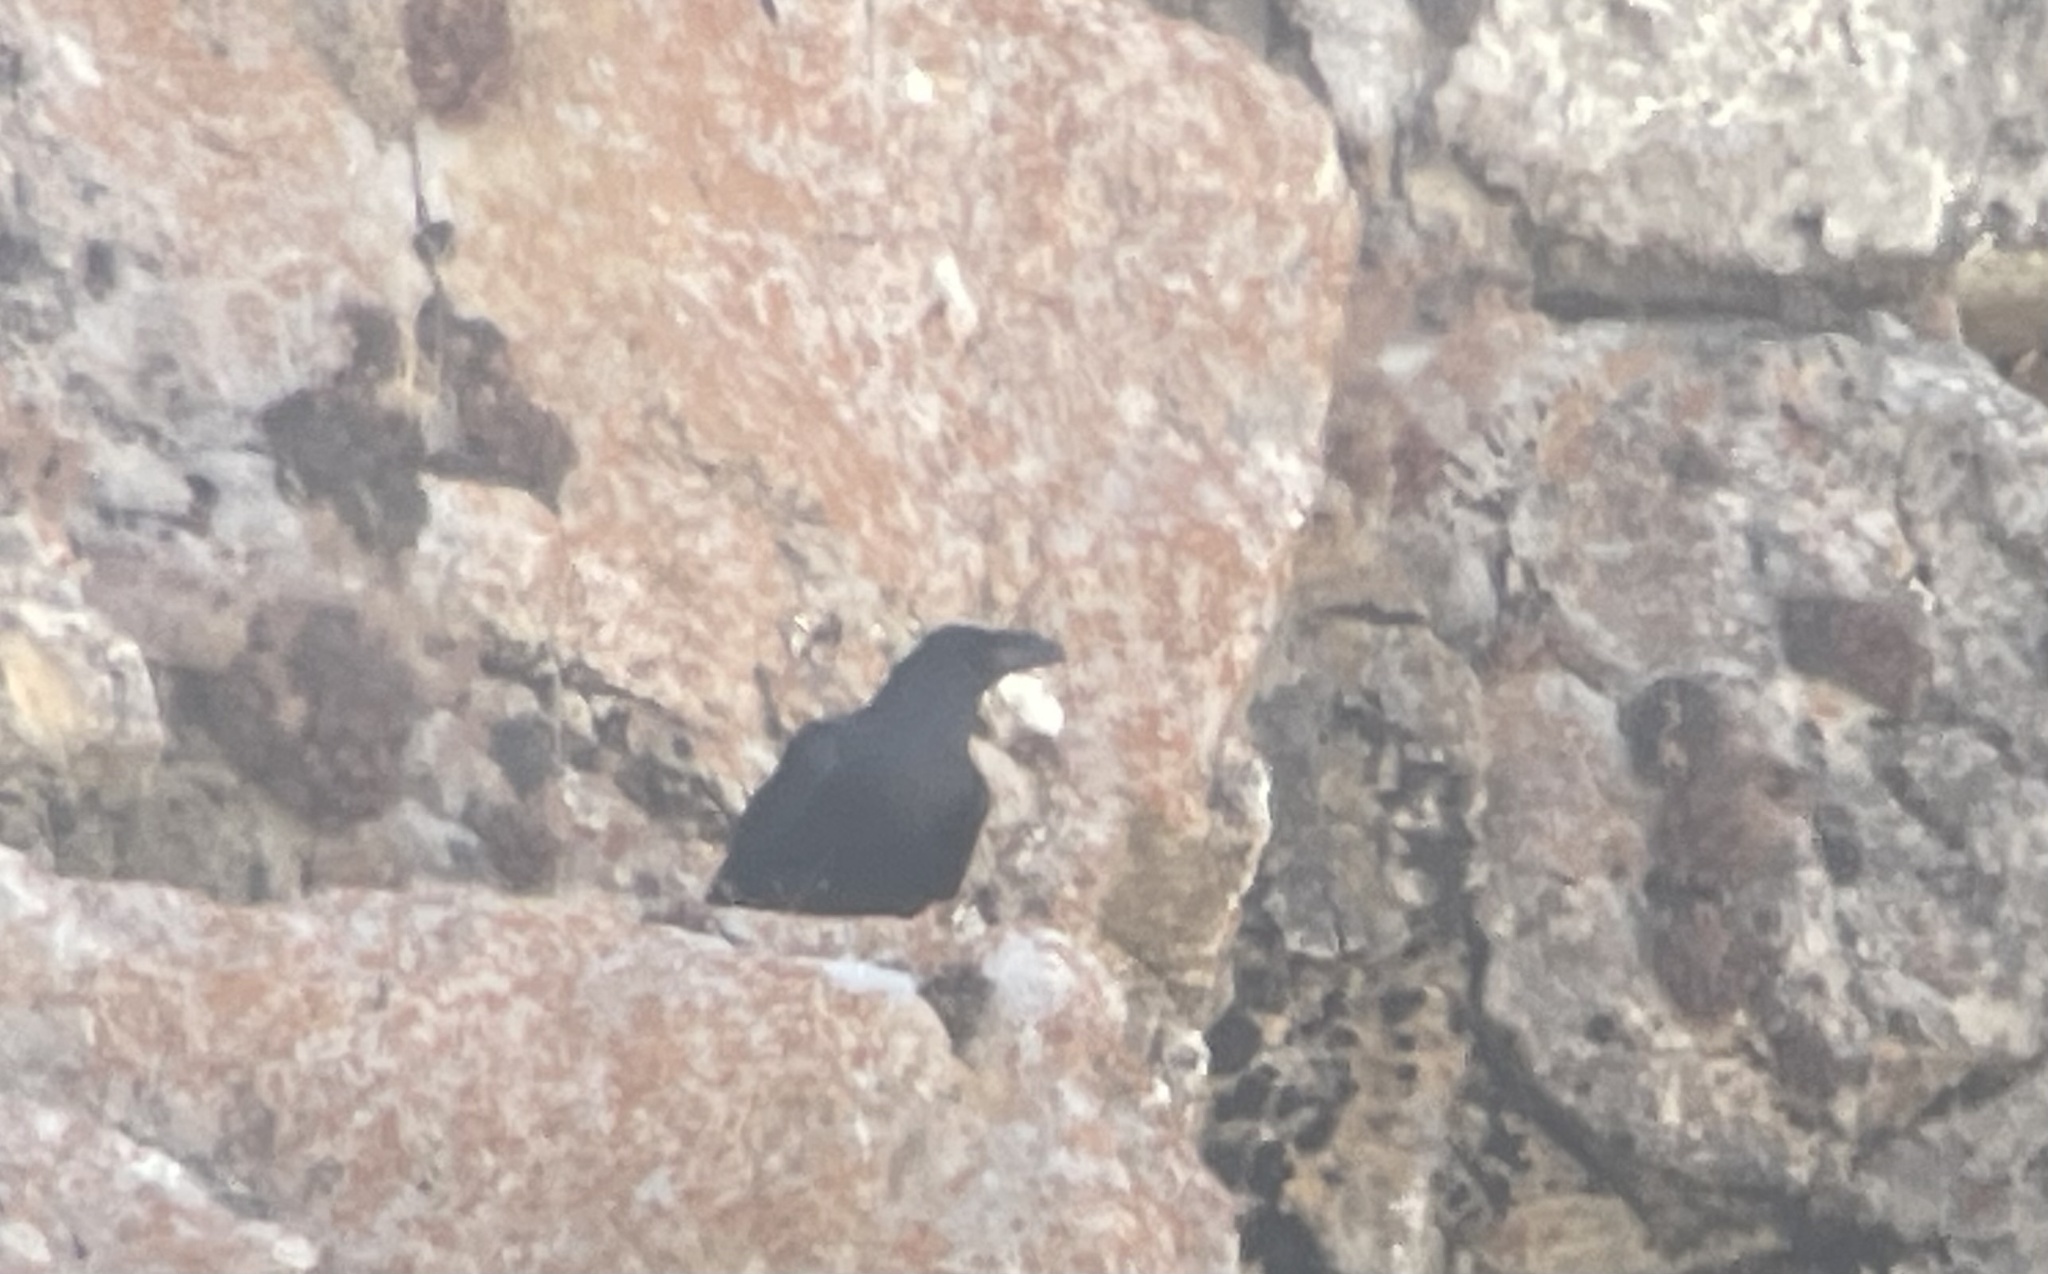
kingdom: Animalia
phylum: Chordata
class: Aves
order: Passeriformes
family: Corvidae
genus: Corvus
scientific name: Corvus corax
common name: Common raven
